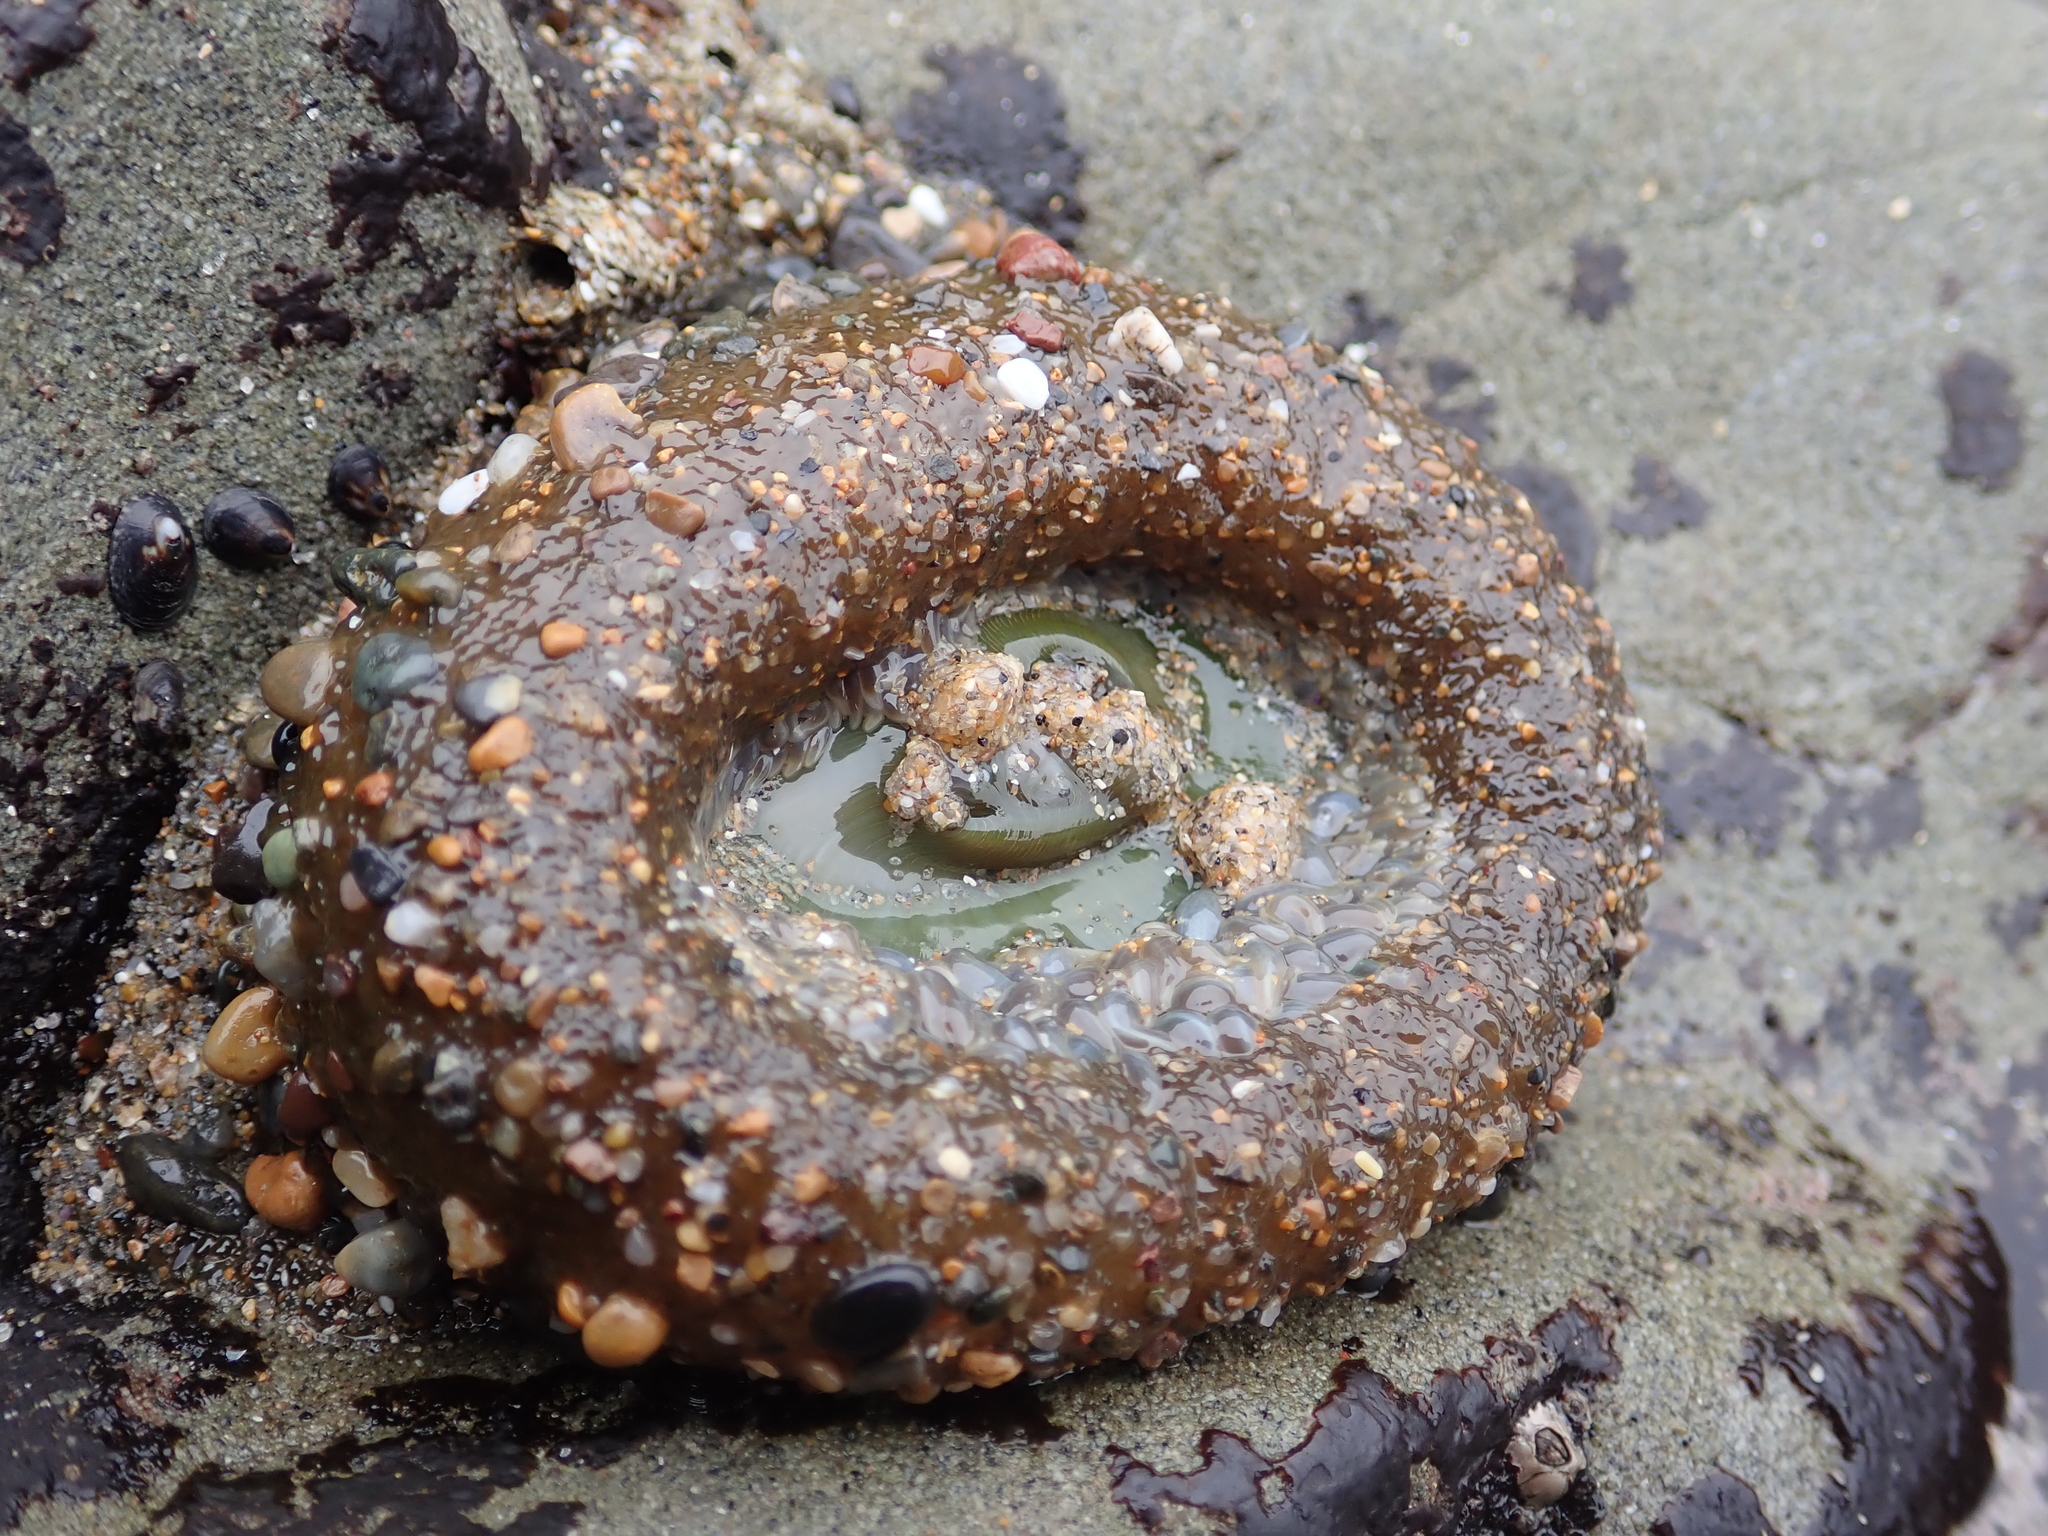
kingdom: Animalia
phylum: Cnidaria
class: Anthozoa
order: Actiniaria
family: Actiniidae
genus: Anthopleura
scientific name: Anthopleura xanthogrammica
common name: Giant green anemone
